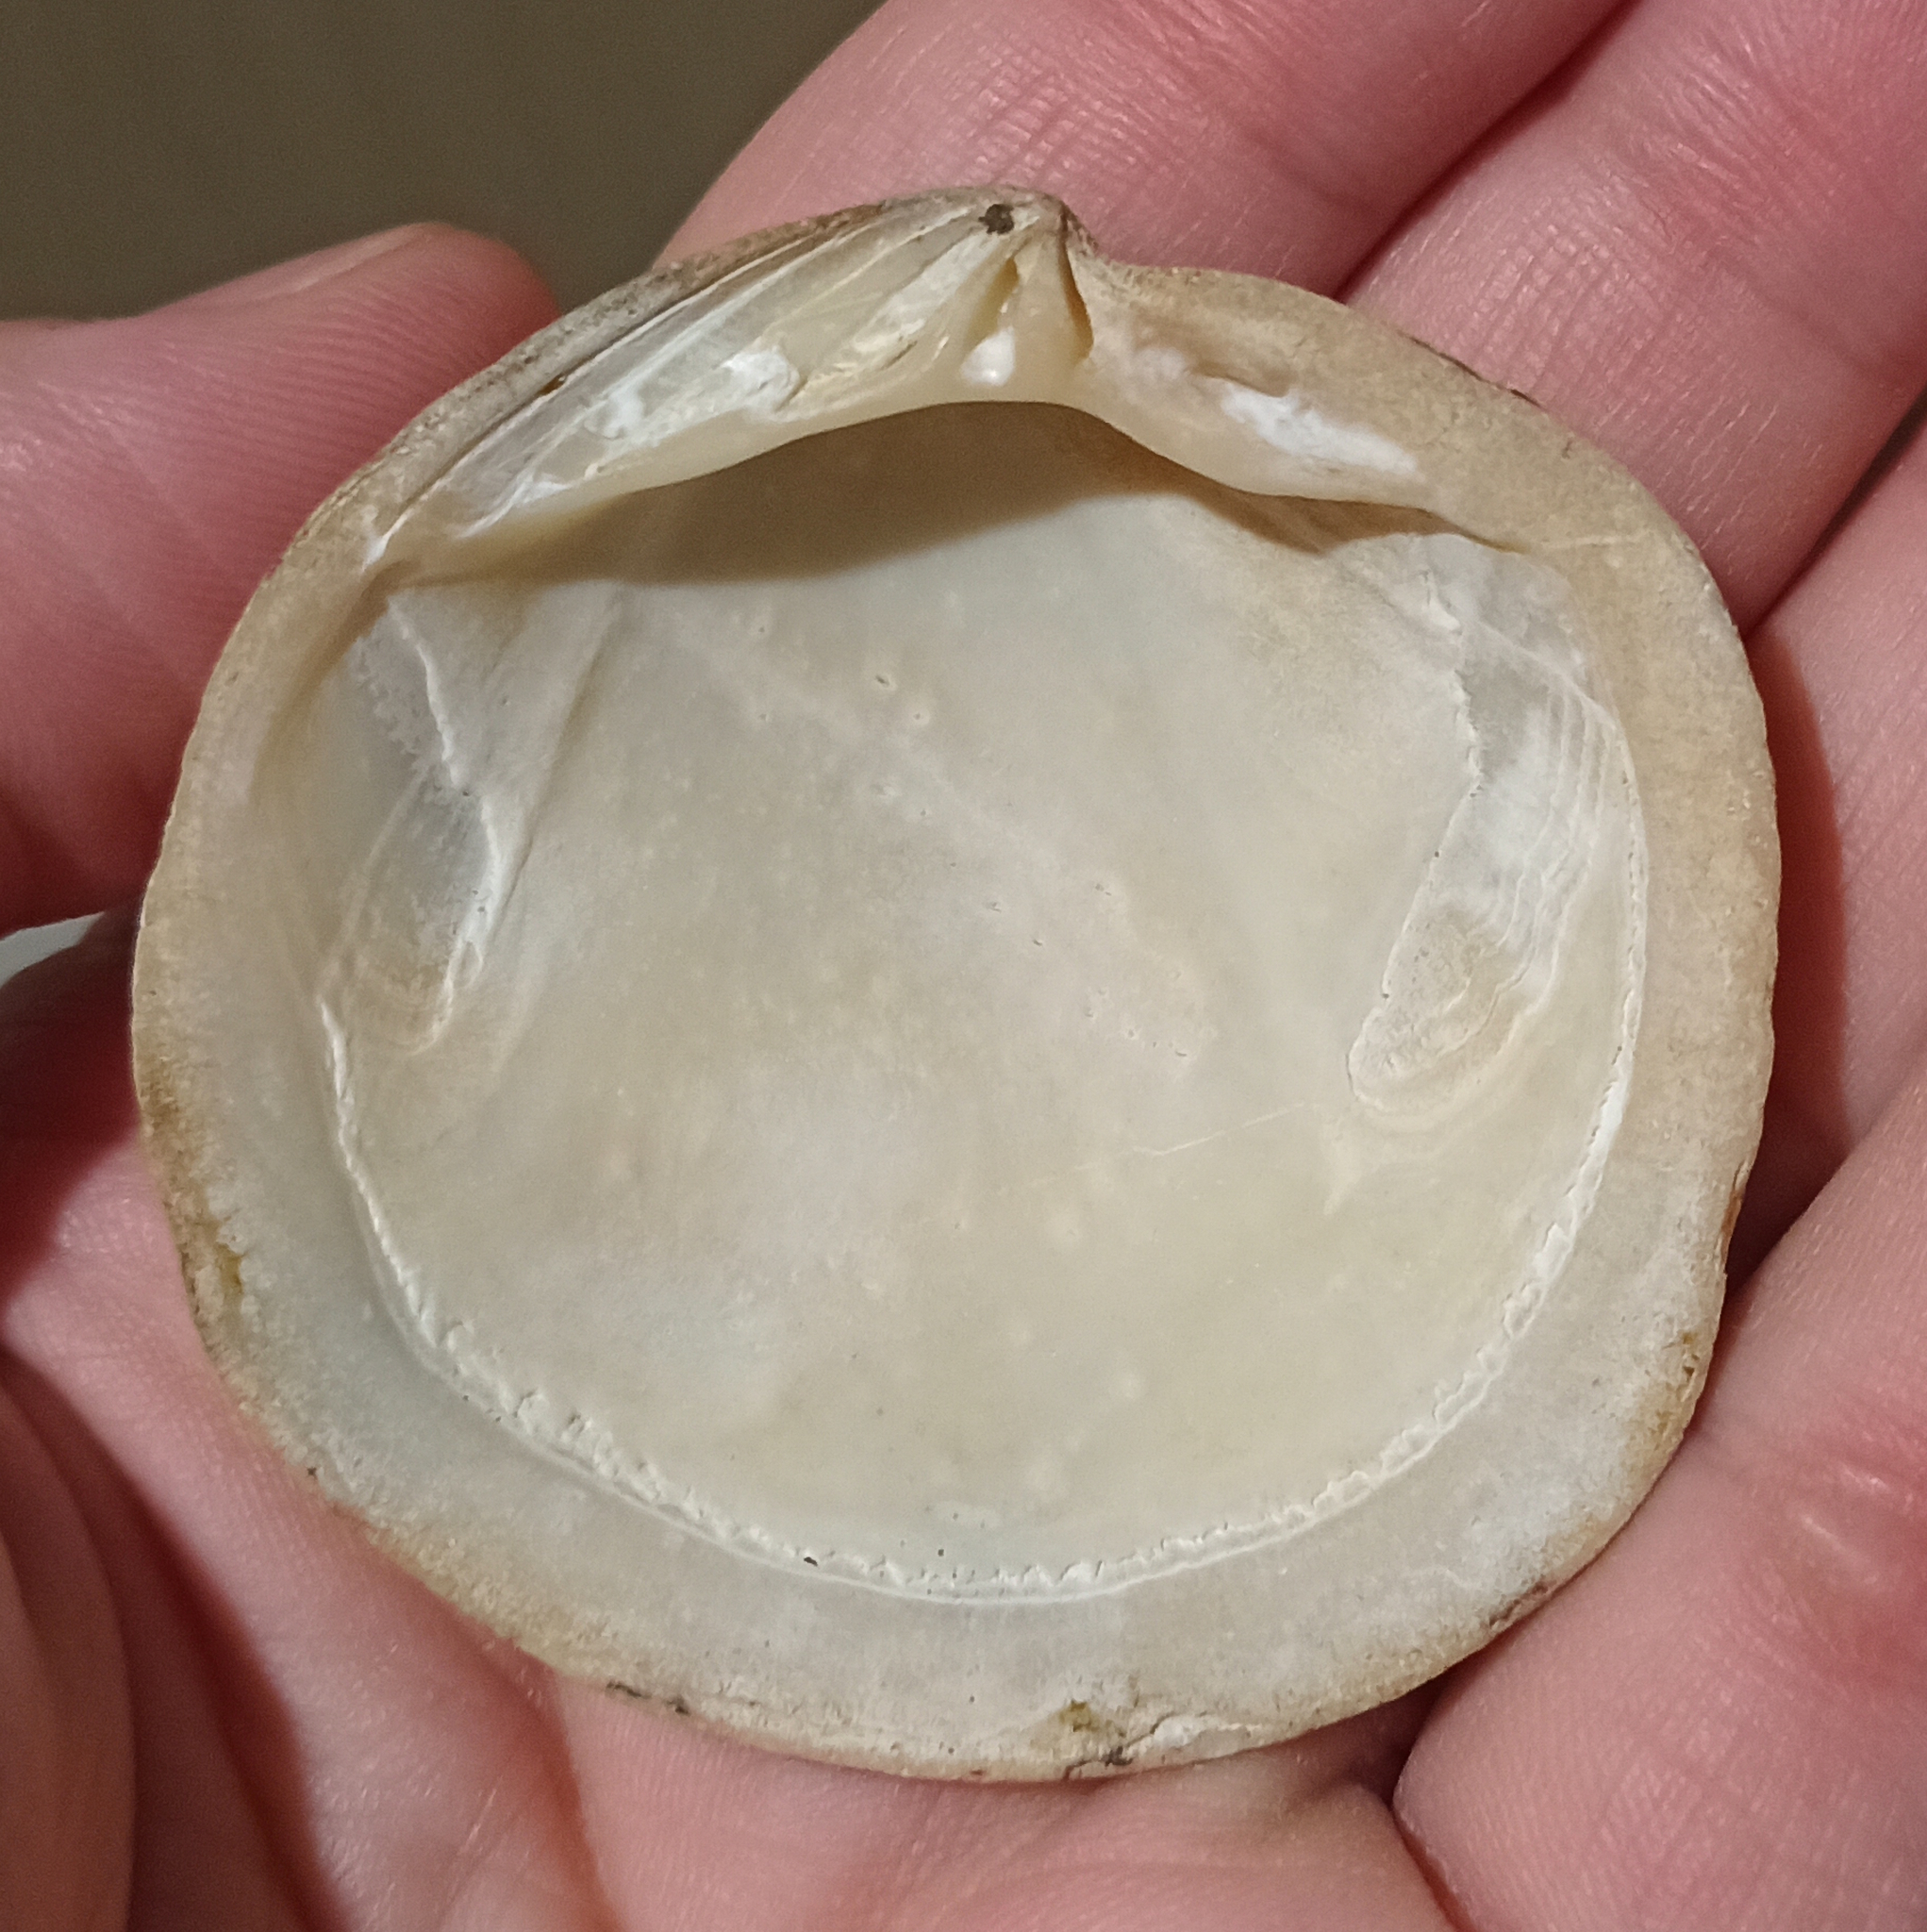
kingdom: Animalia
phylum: Mollusca
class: Bivalvia
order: Lucinida
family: Lucinidae
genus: Codakia
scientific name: Codakia orbicularis
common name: Tiger lucine
